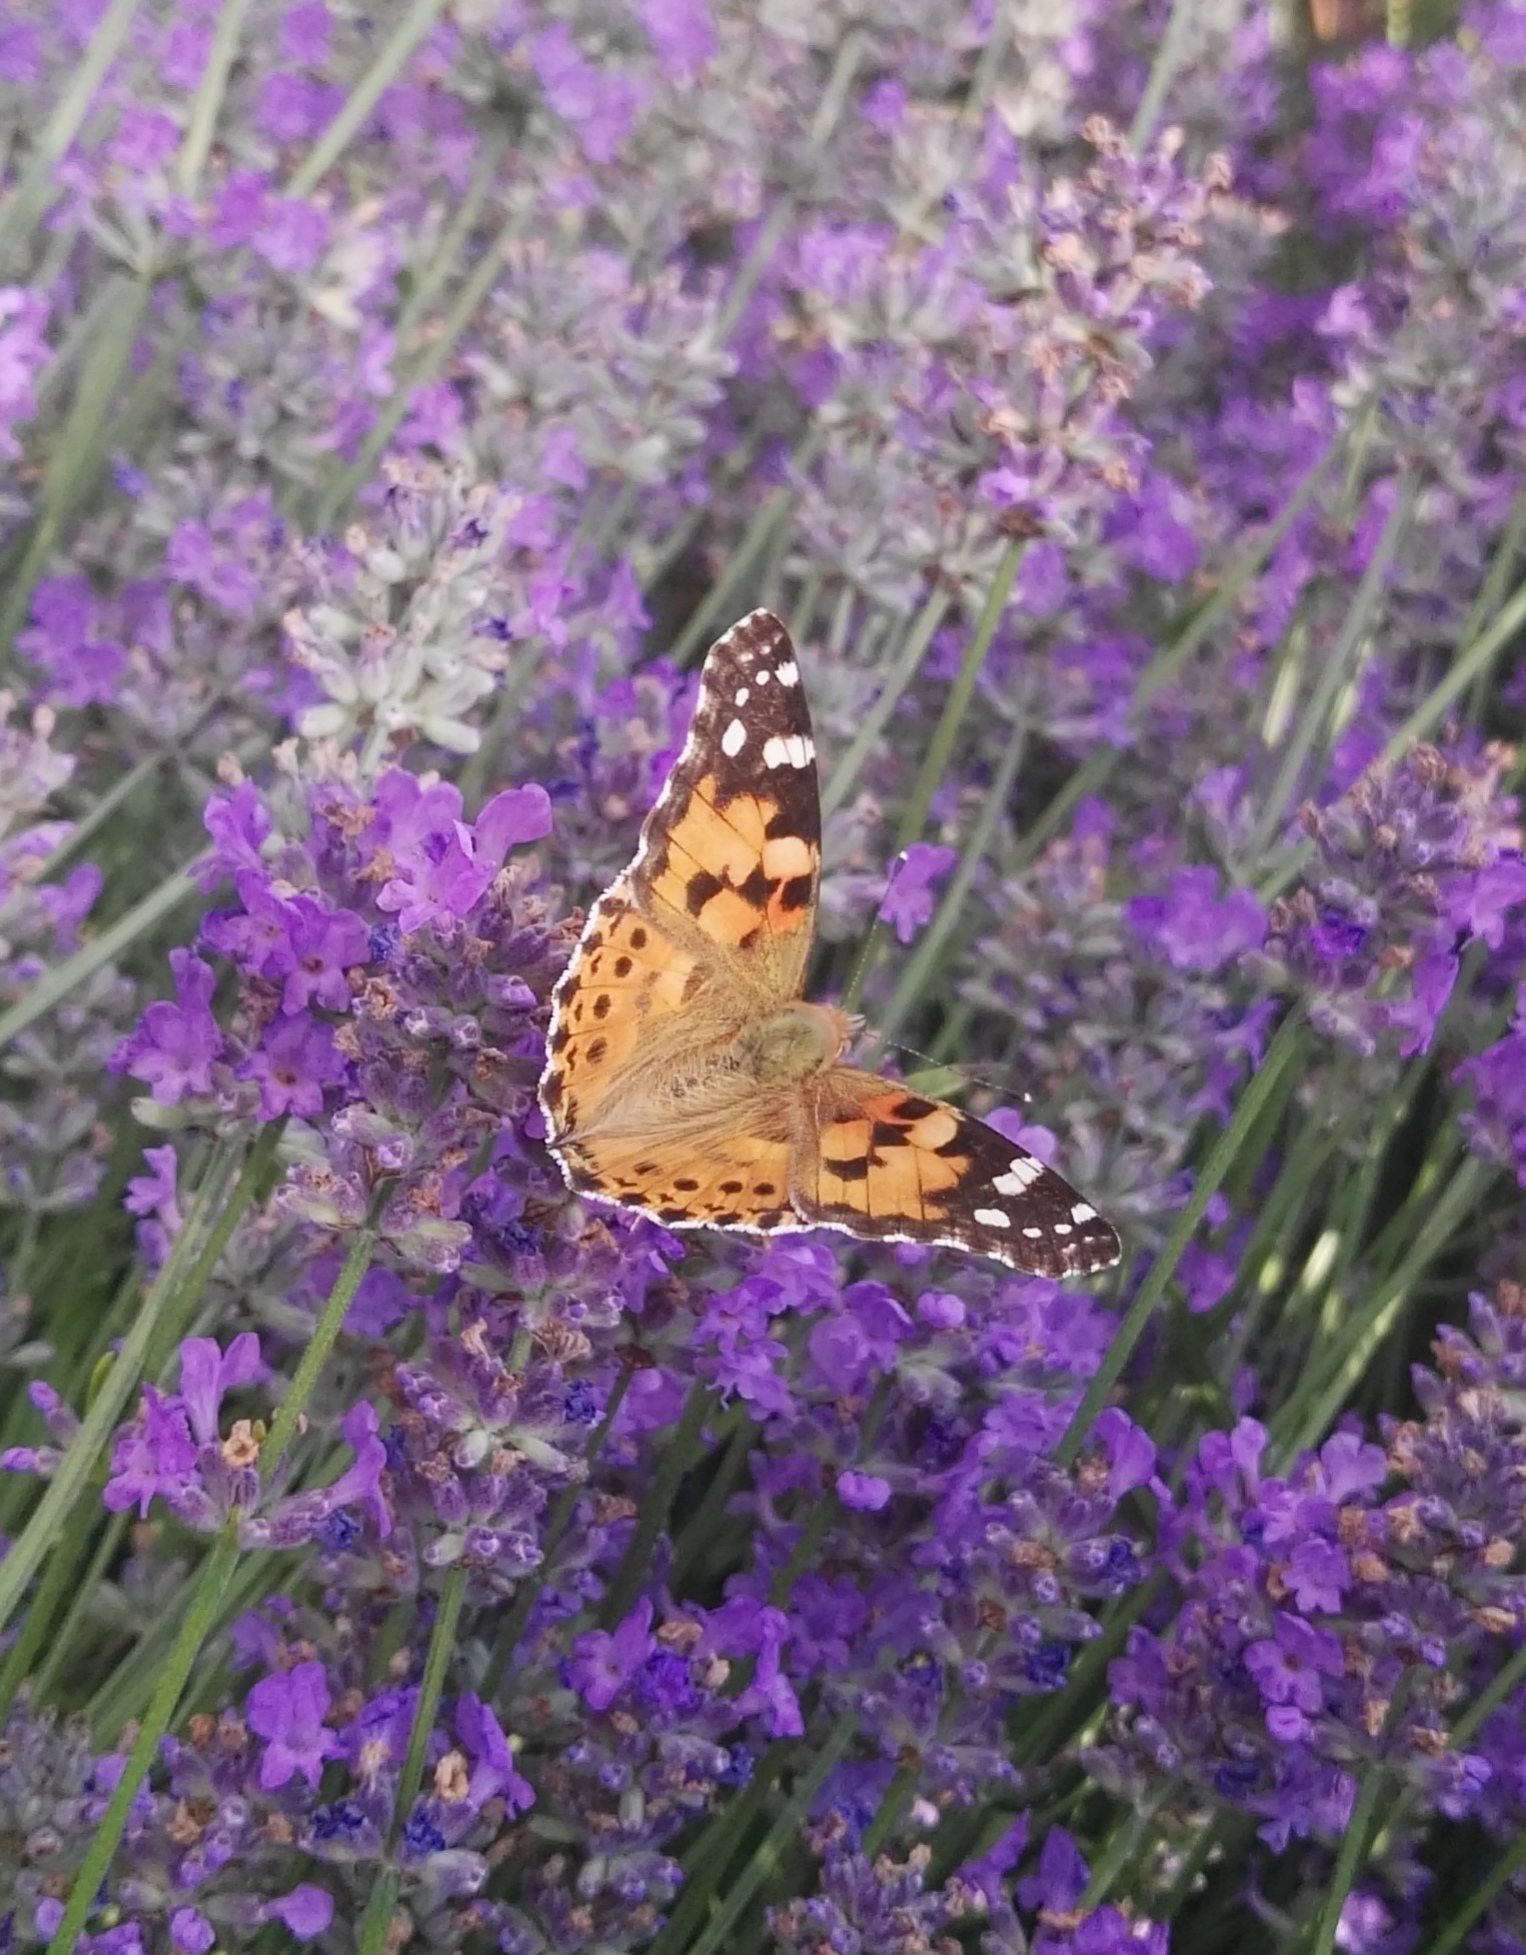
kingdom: Animalia
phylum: Arthropoda
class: Insecta
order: Lepidoptera
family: Nymphalidae
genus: Vanessa
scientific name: Vanessa cardui
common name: Painted lady
